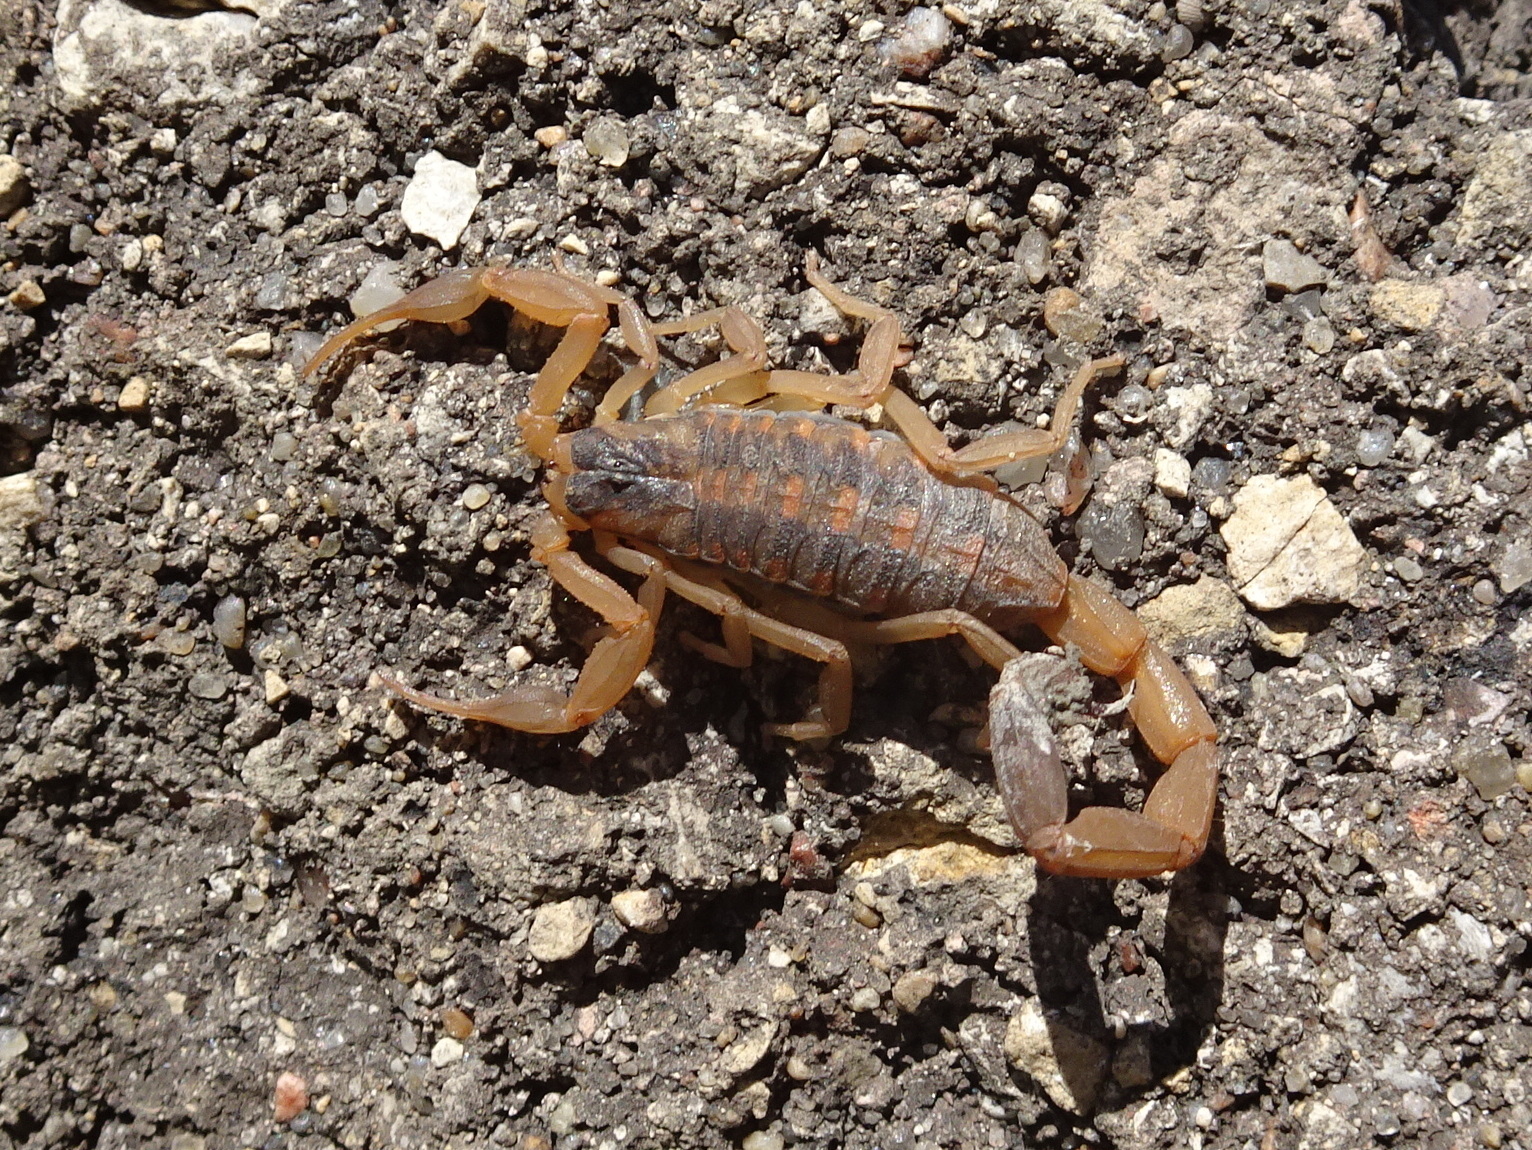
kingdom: Animalia
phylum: Arthropoda
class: Arachnida
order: Scorpiones
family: Buthidae
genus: Centruroides
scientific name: Centruroides vittatus
